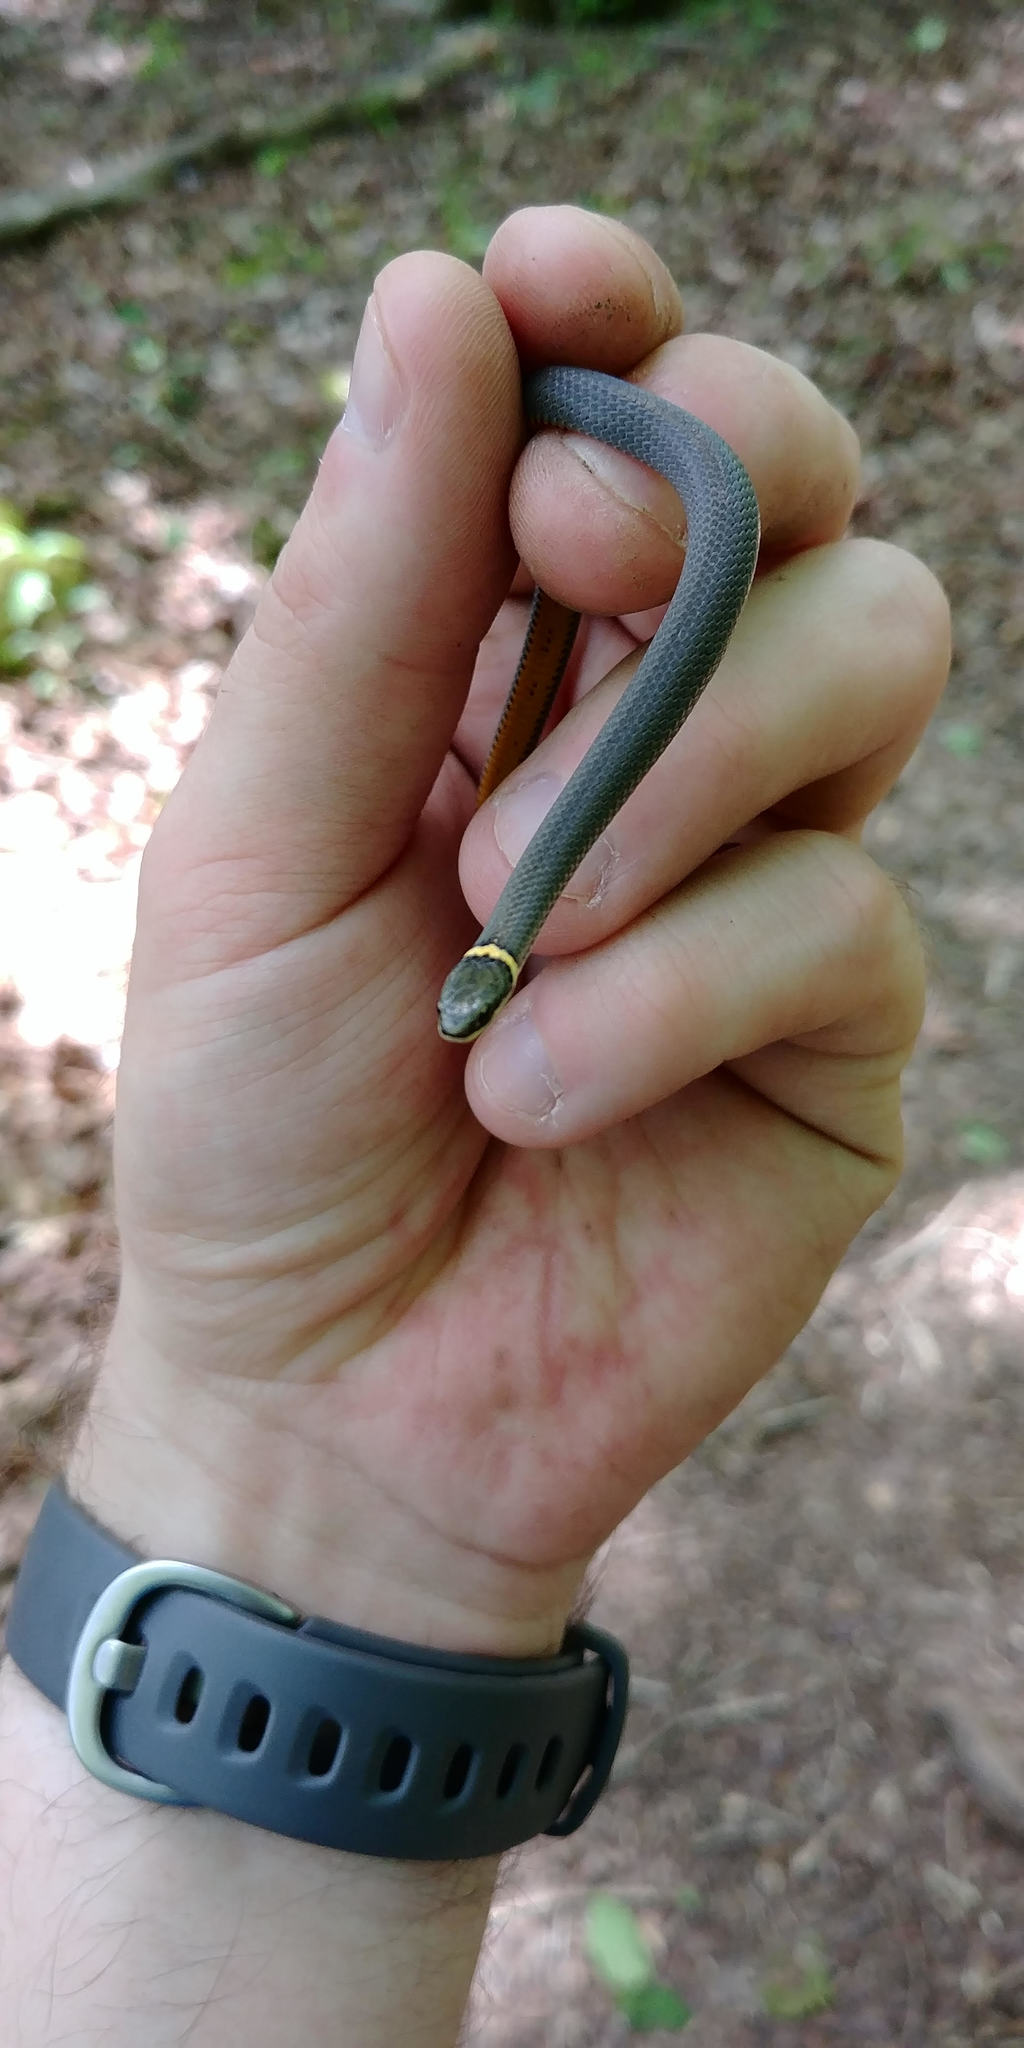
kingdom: Animalia
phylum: Chordata
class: Squamata
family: Colubridae
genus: Diadophis
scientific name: Diadophis punctatus
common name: Ringneck snake
